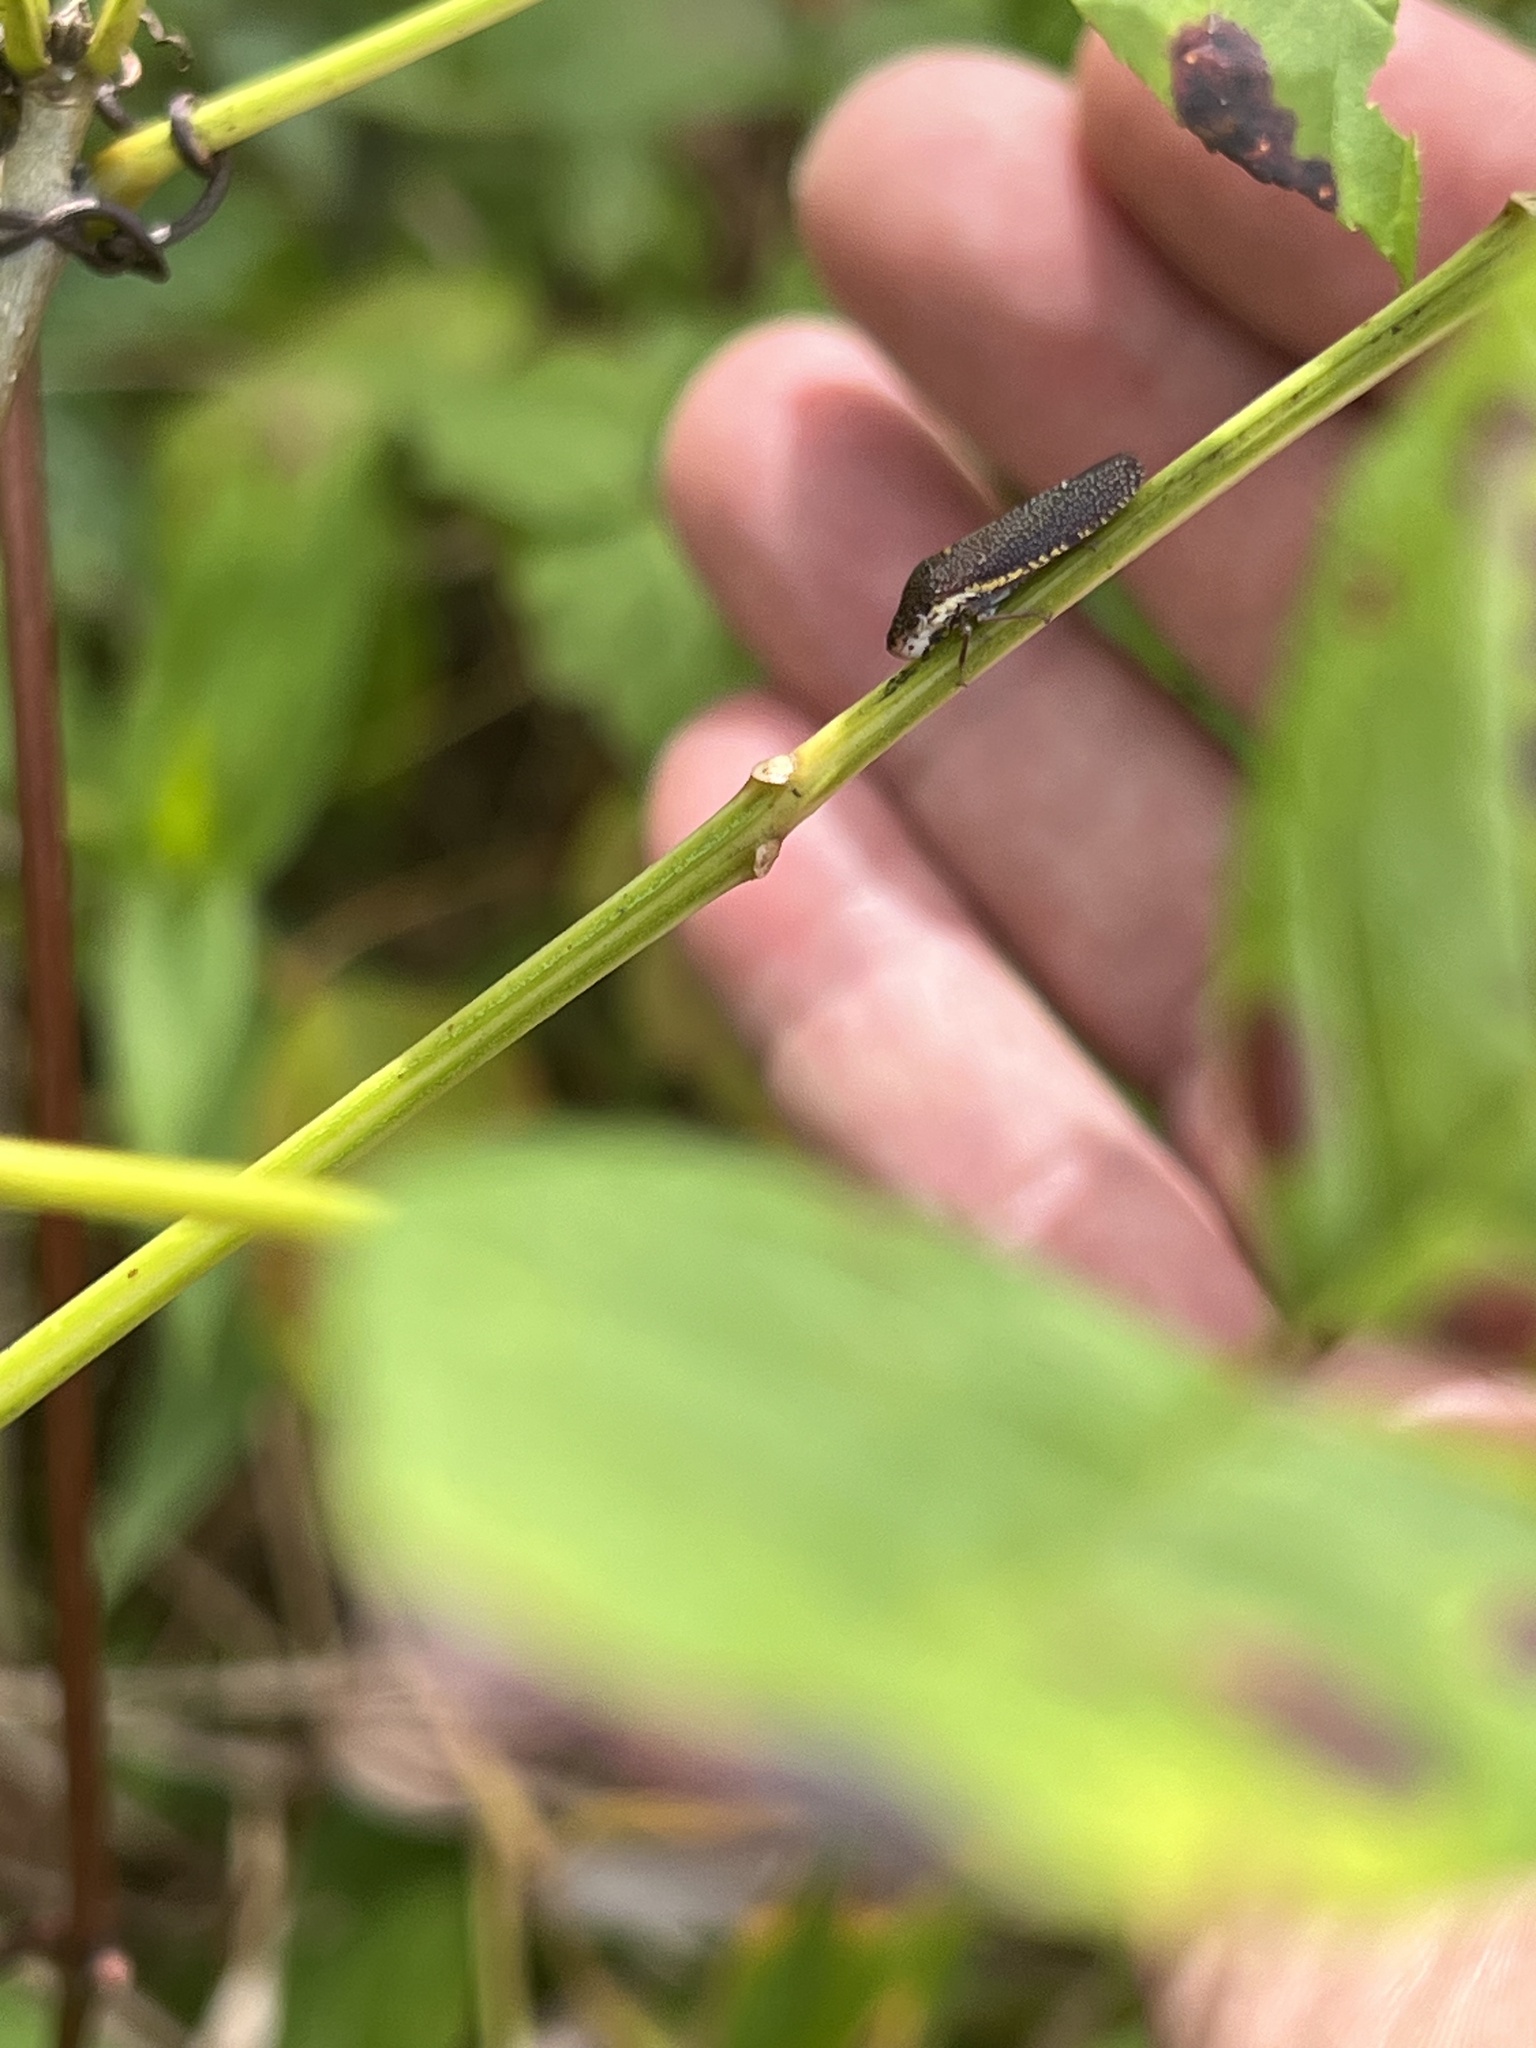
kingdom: Animalia
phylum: Arthropoda
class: Insecta
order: Hemiptera
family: Cicadellidae
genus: Paraulacizes
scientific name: Paraulacizes irrorata
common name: Speckled sharpshooter
